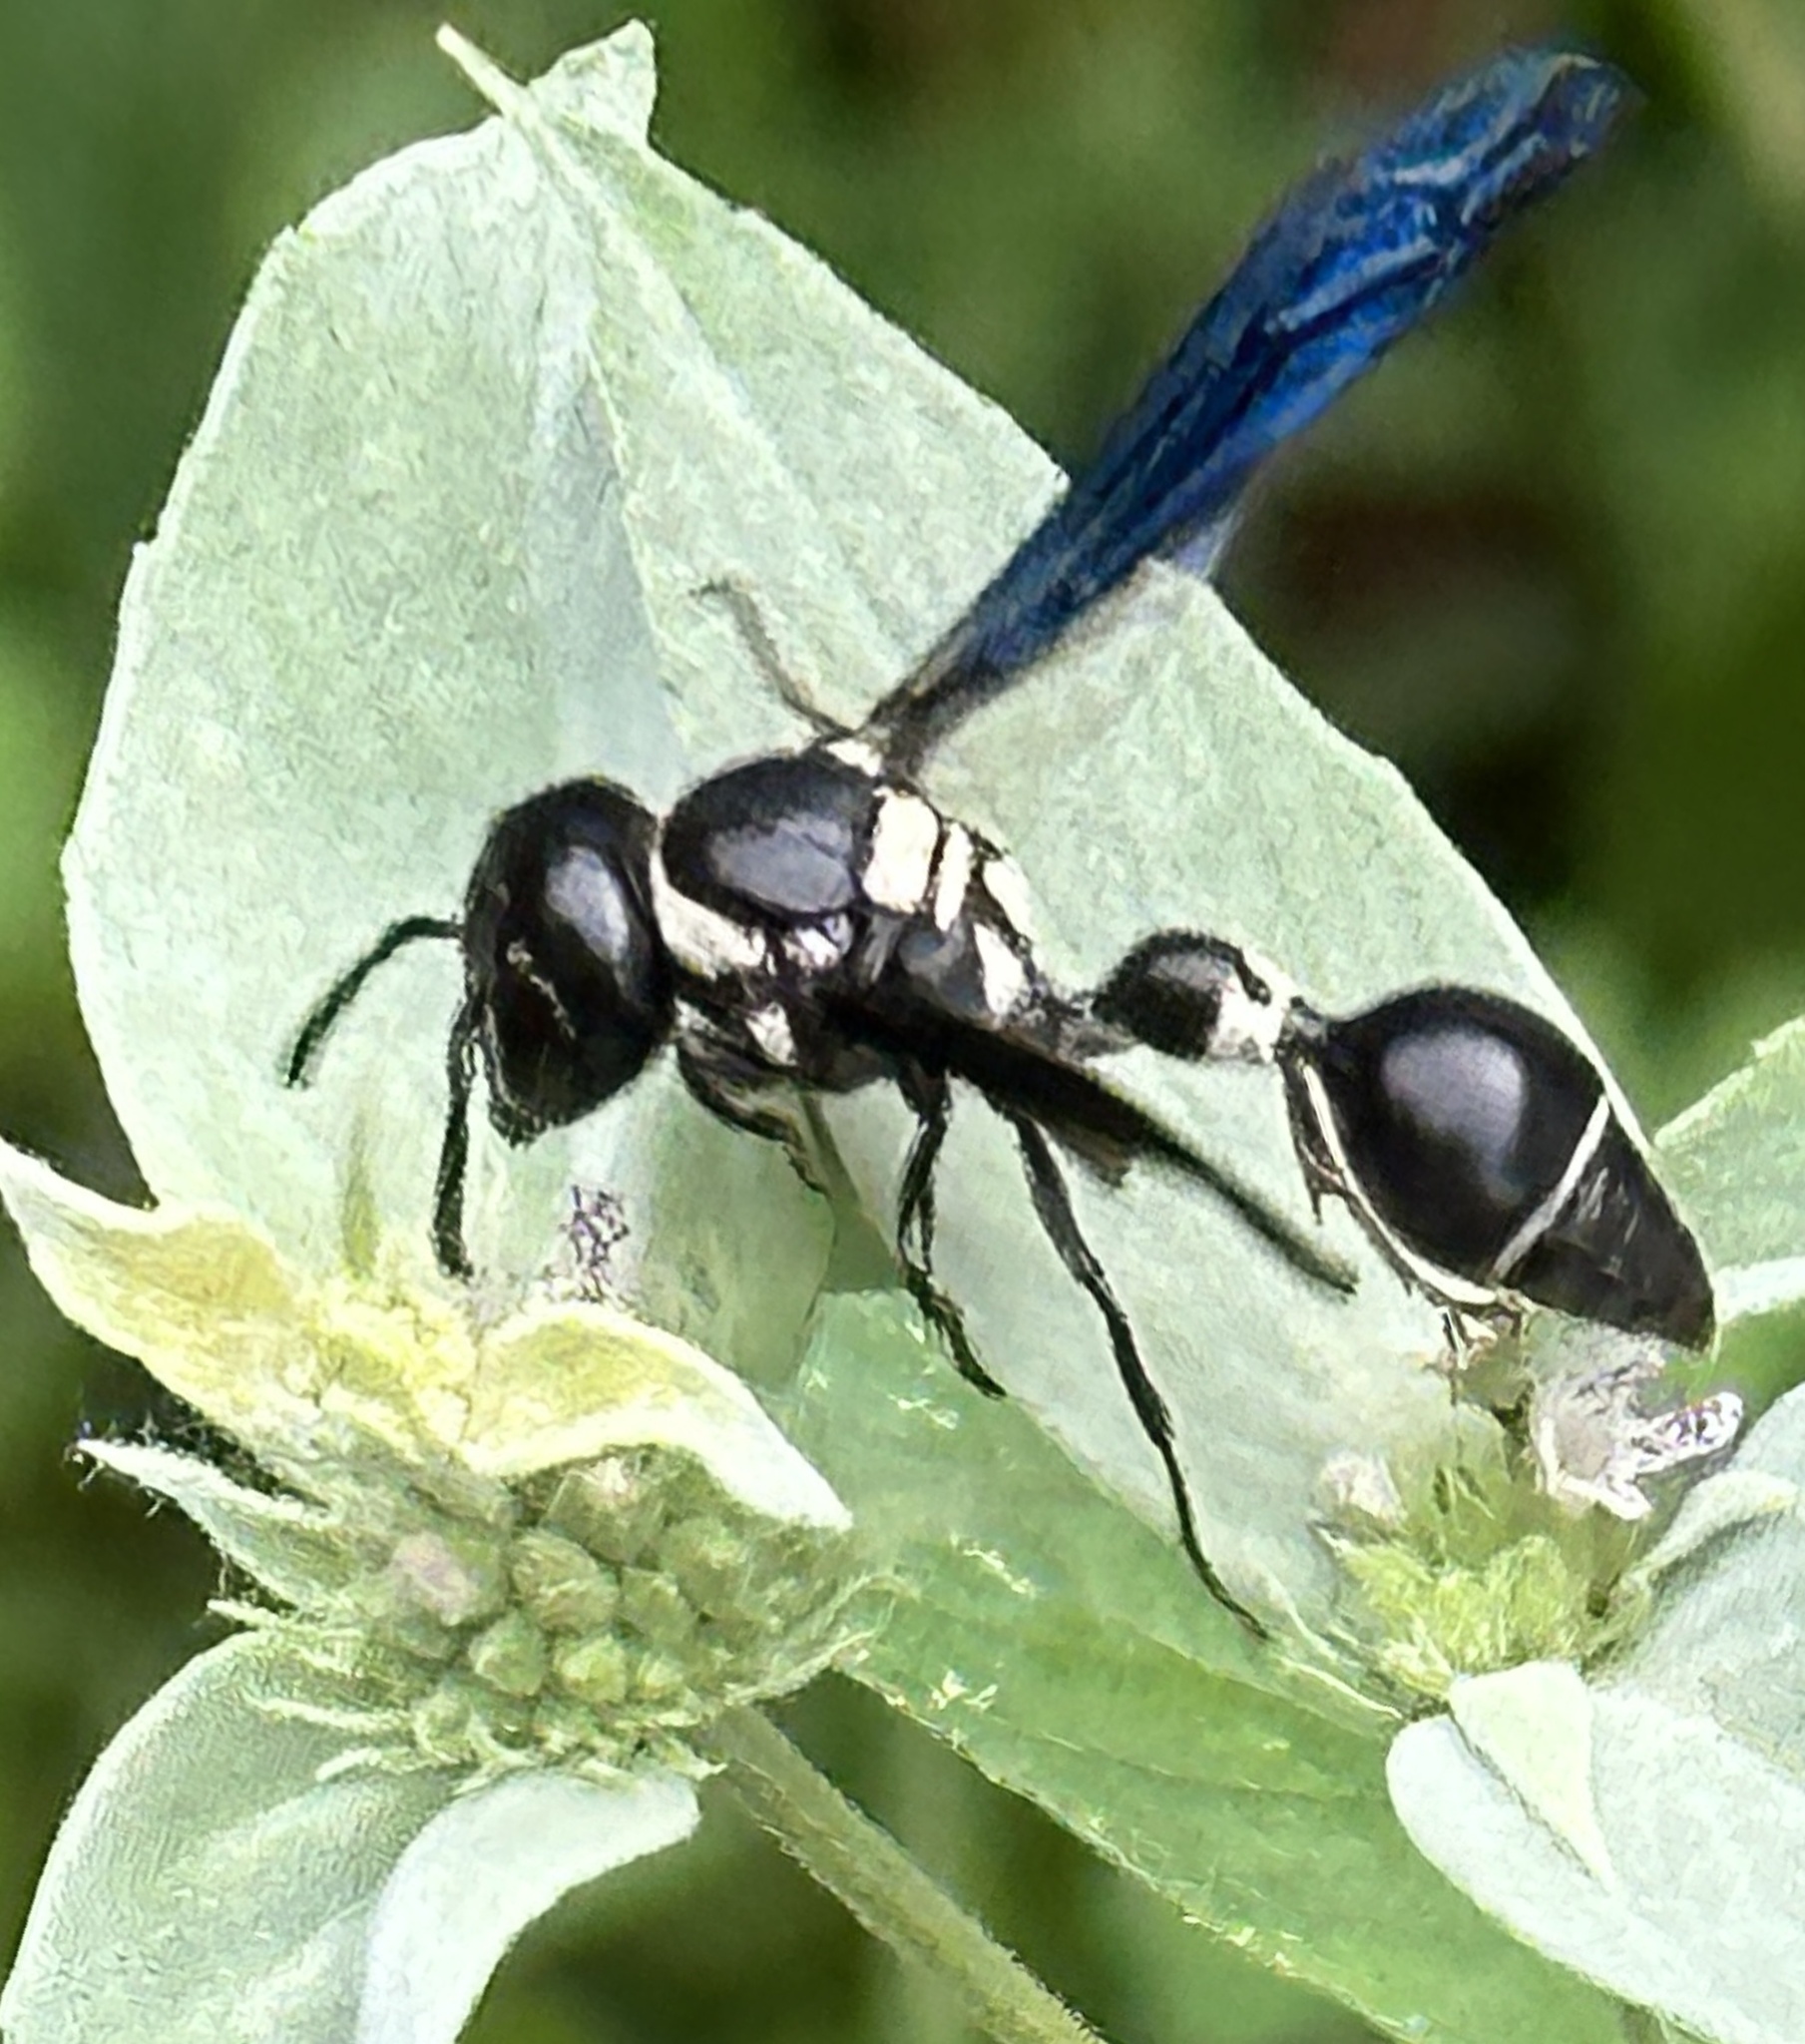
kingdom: Animalia
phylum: Arthropoda
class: Insecta
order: Hymenoptera
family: Eumenidae
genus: Zethus
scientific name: Zethus spinipes
